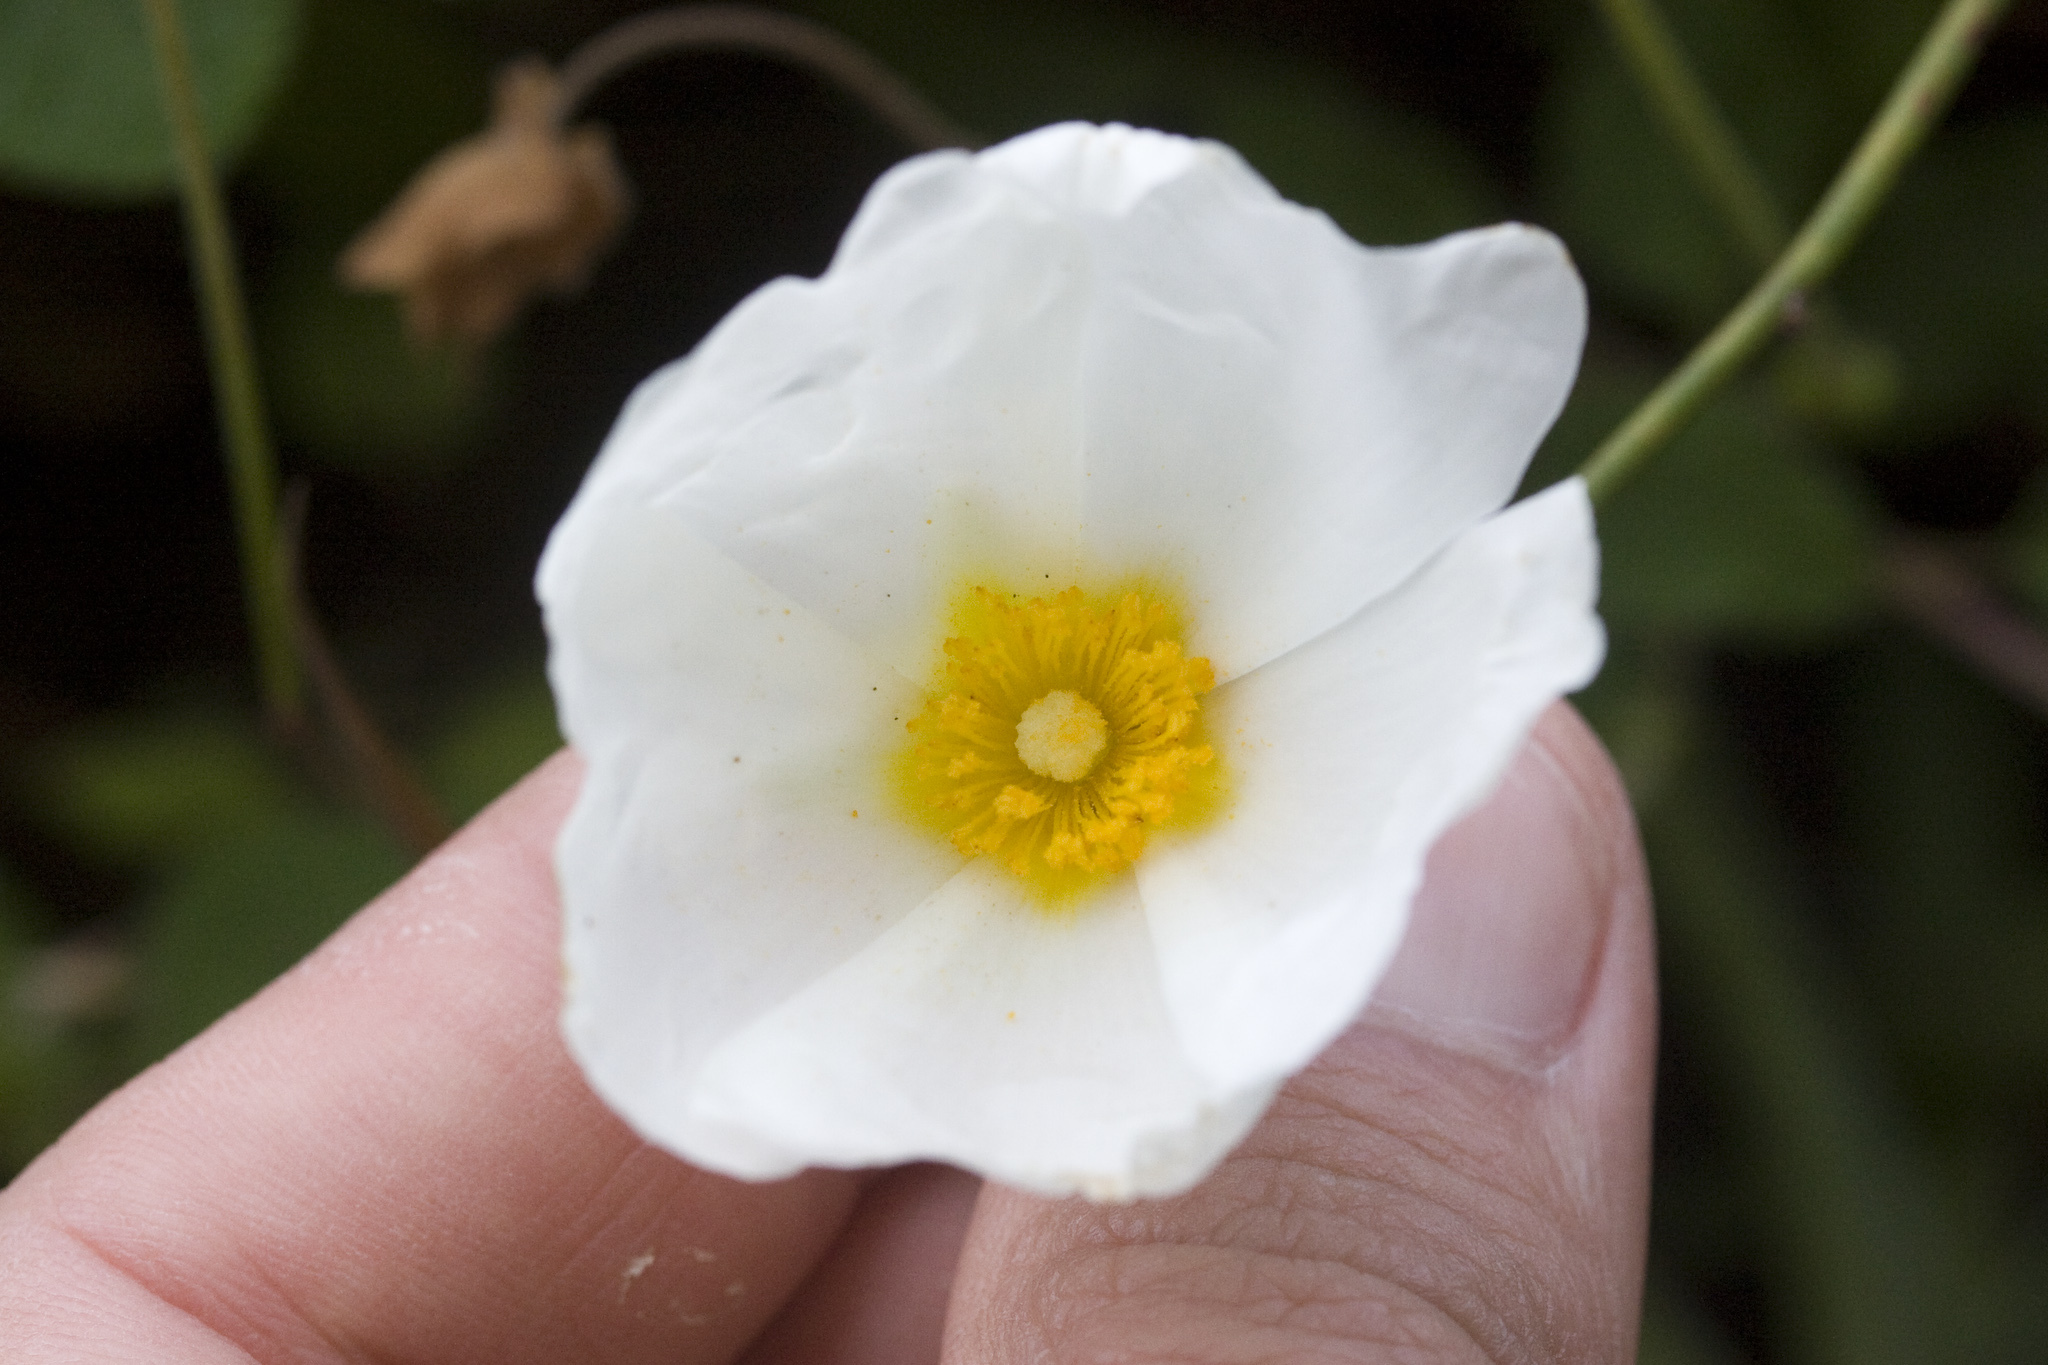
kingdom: Plantae
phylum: Tracheophyta
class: Magnoliopsida
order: Malvales
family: Cistaceae
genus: Cistus
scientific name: Cistus salviifolius
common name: Salvia cistus
